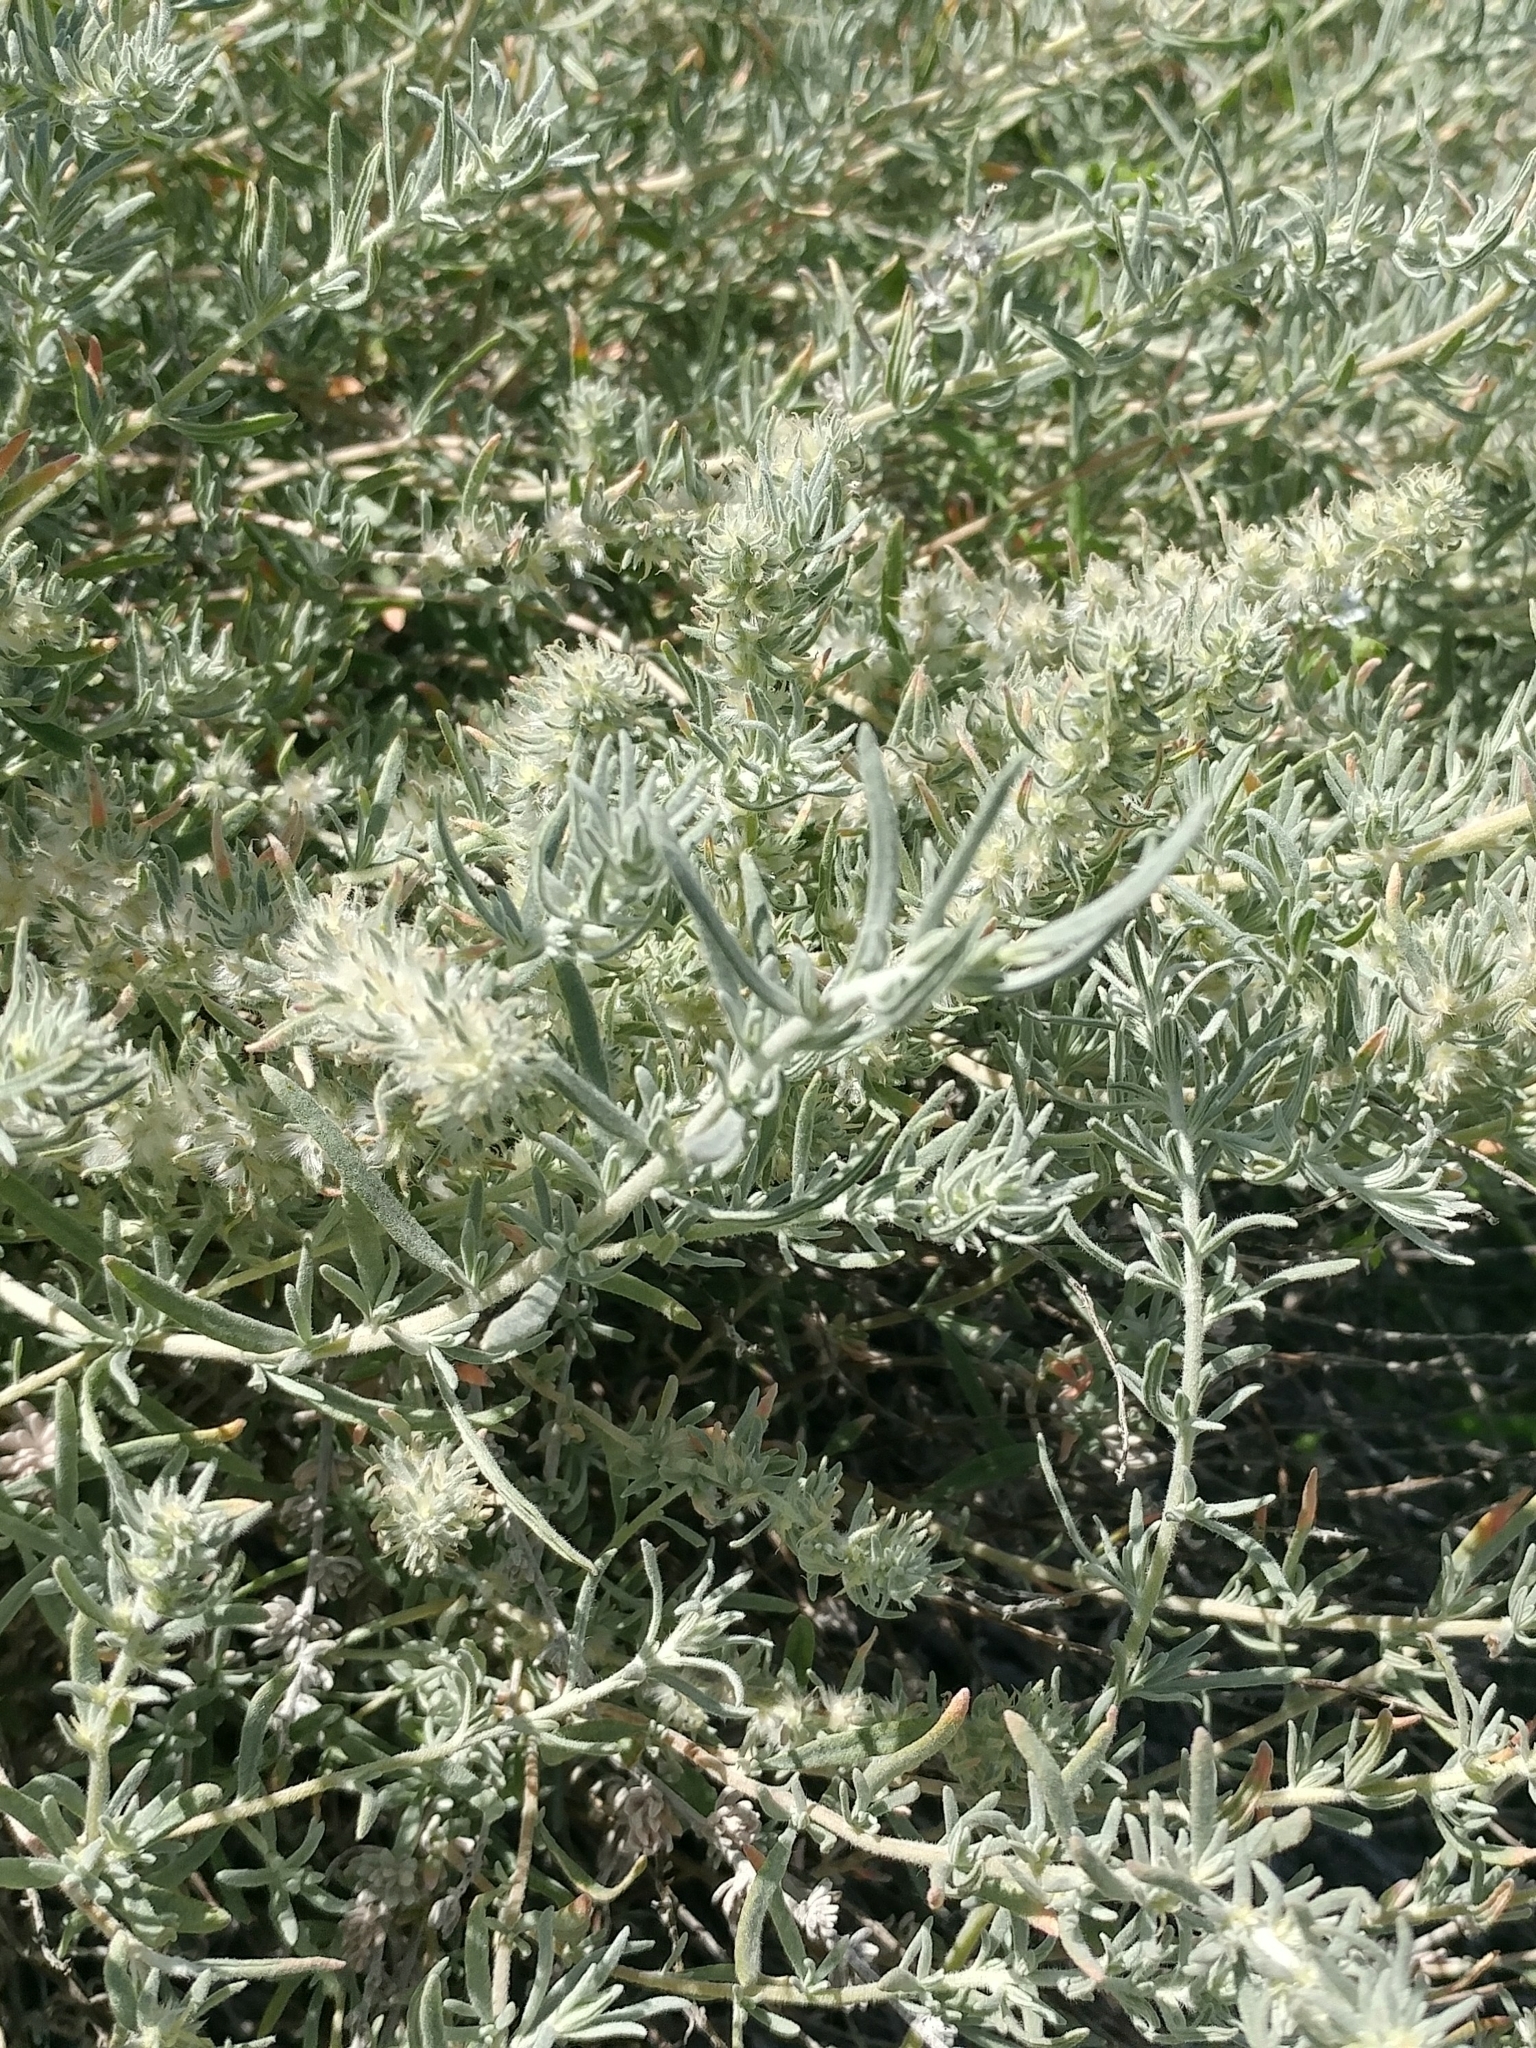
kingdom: Plantae
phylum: Tracheophyta
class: Magnoliopsida
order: Caryophyllales
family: Amaranthaceae
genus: Krascheninnikovia
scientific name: Krascheninnikovia lanata
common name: Winterfat
